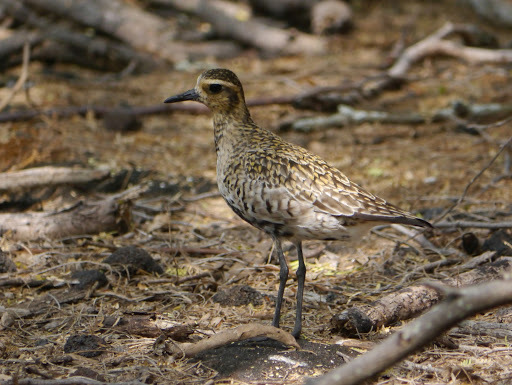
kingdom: Animalia
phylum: Chordata
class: Aves
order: Charadriiformes
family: Charadriidae
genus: Pluvialis
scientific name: Pluvialis fulva
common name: Pacific golden plover
